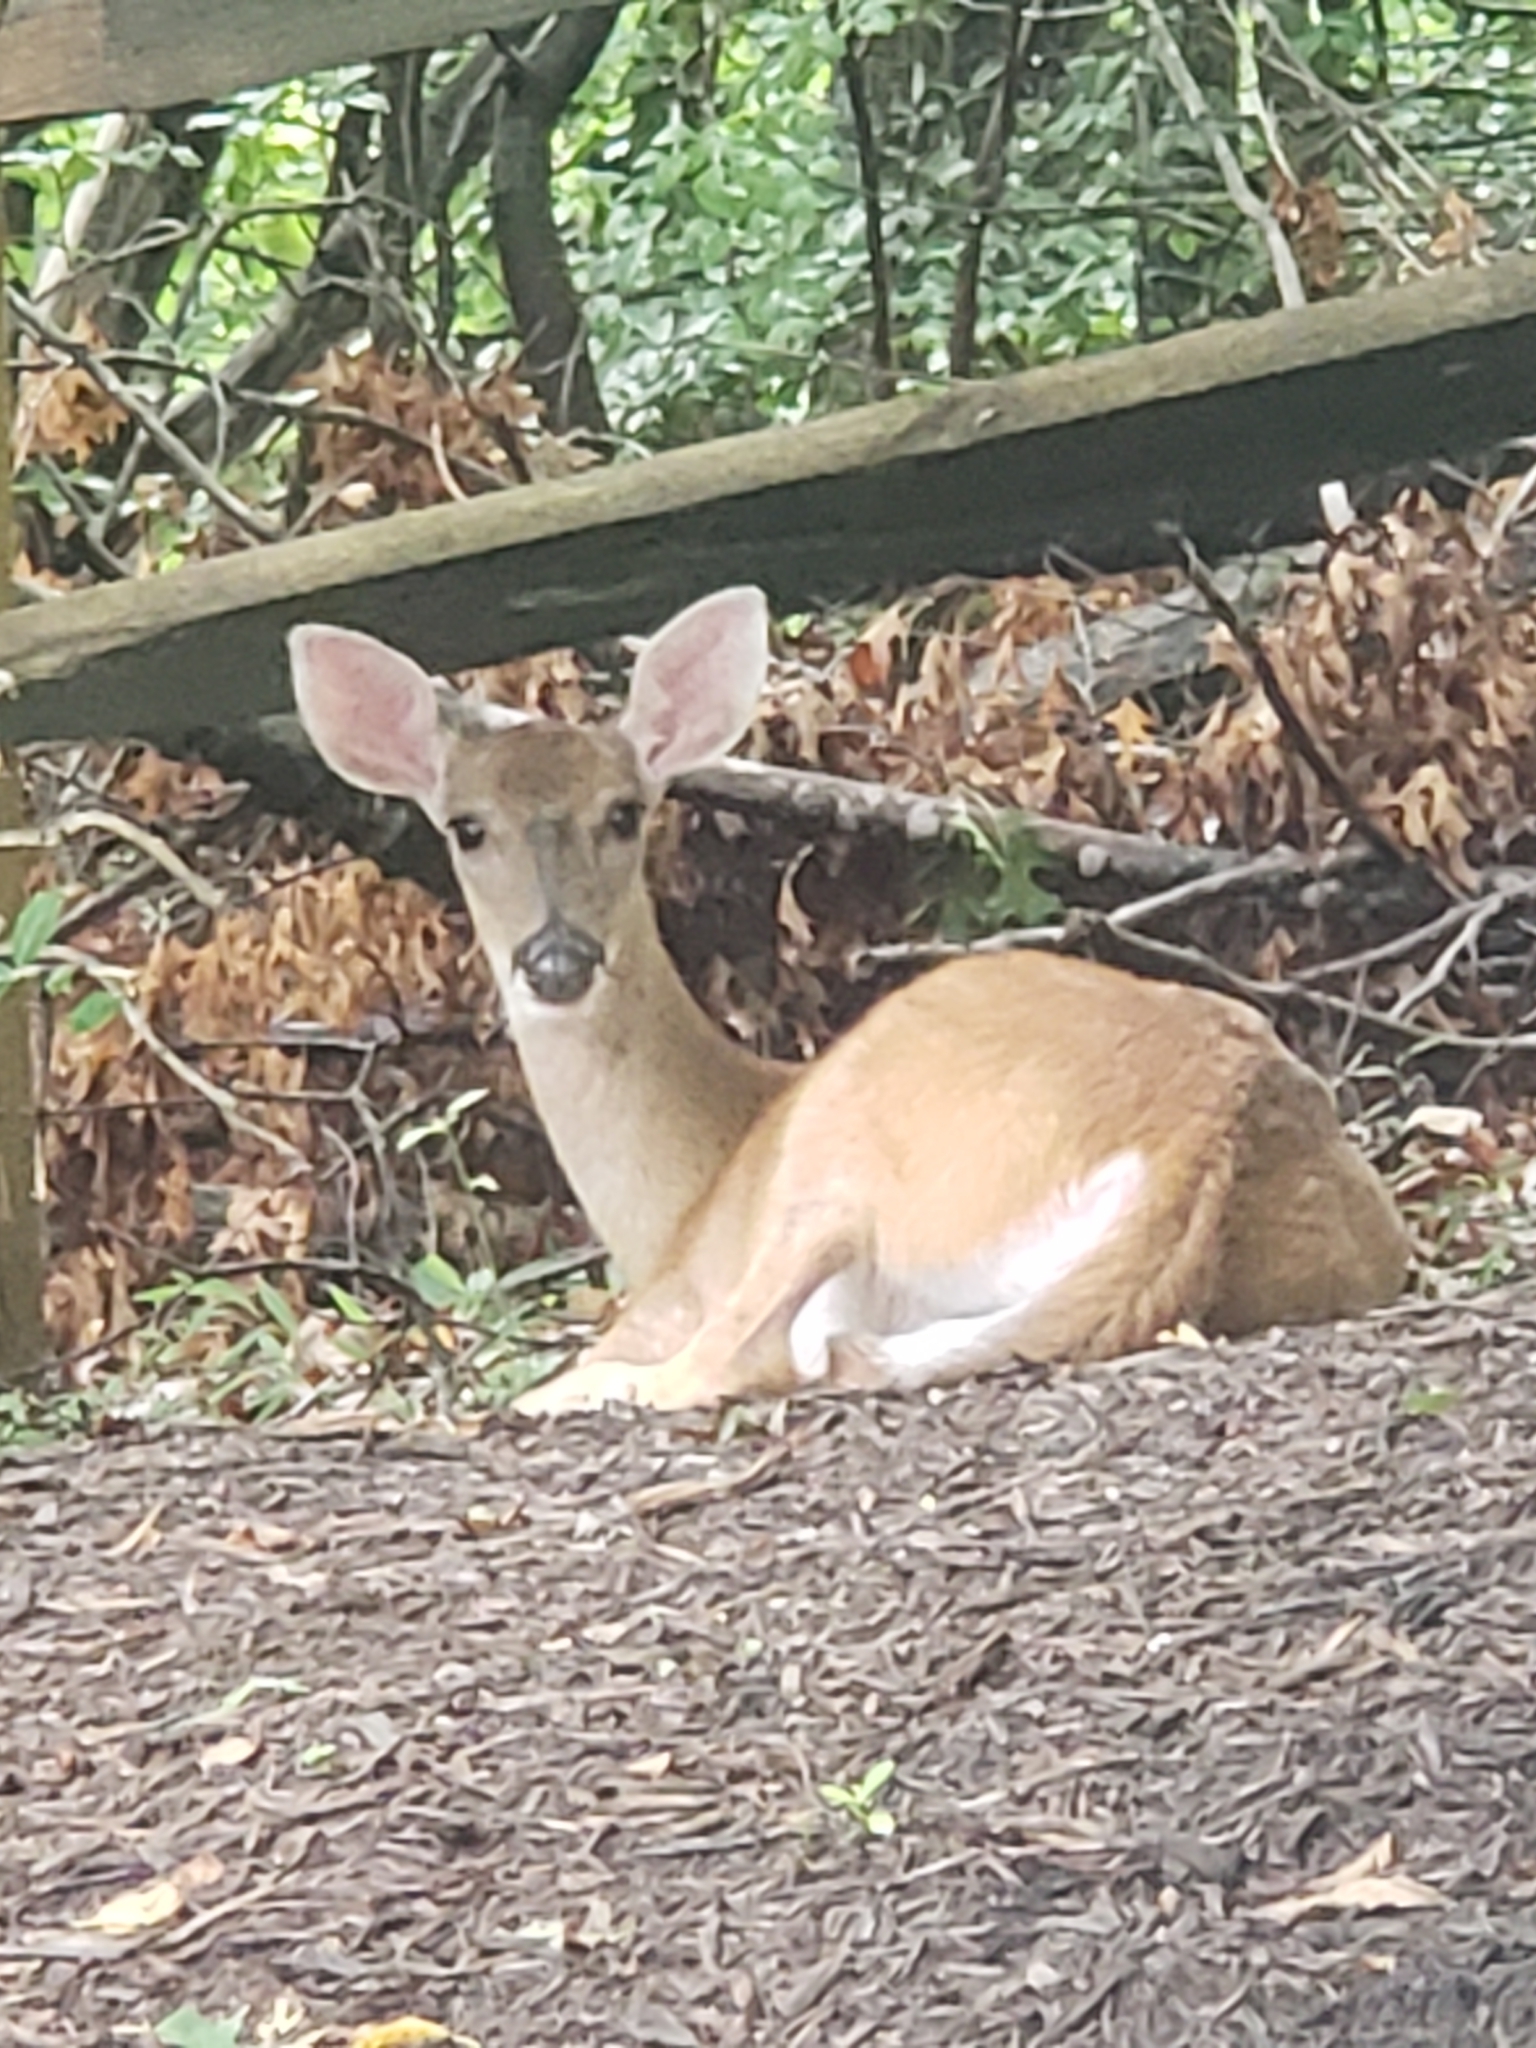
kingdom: Animalia
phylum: Chordata
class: Mammalia
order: Artiodactyla
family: Cervidae
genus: Odocoileus
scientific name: Odocoileus virginianus
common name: White-tailed deer
